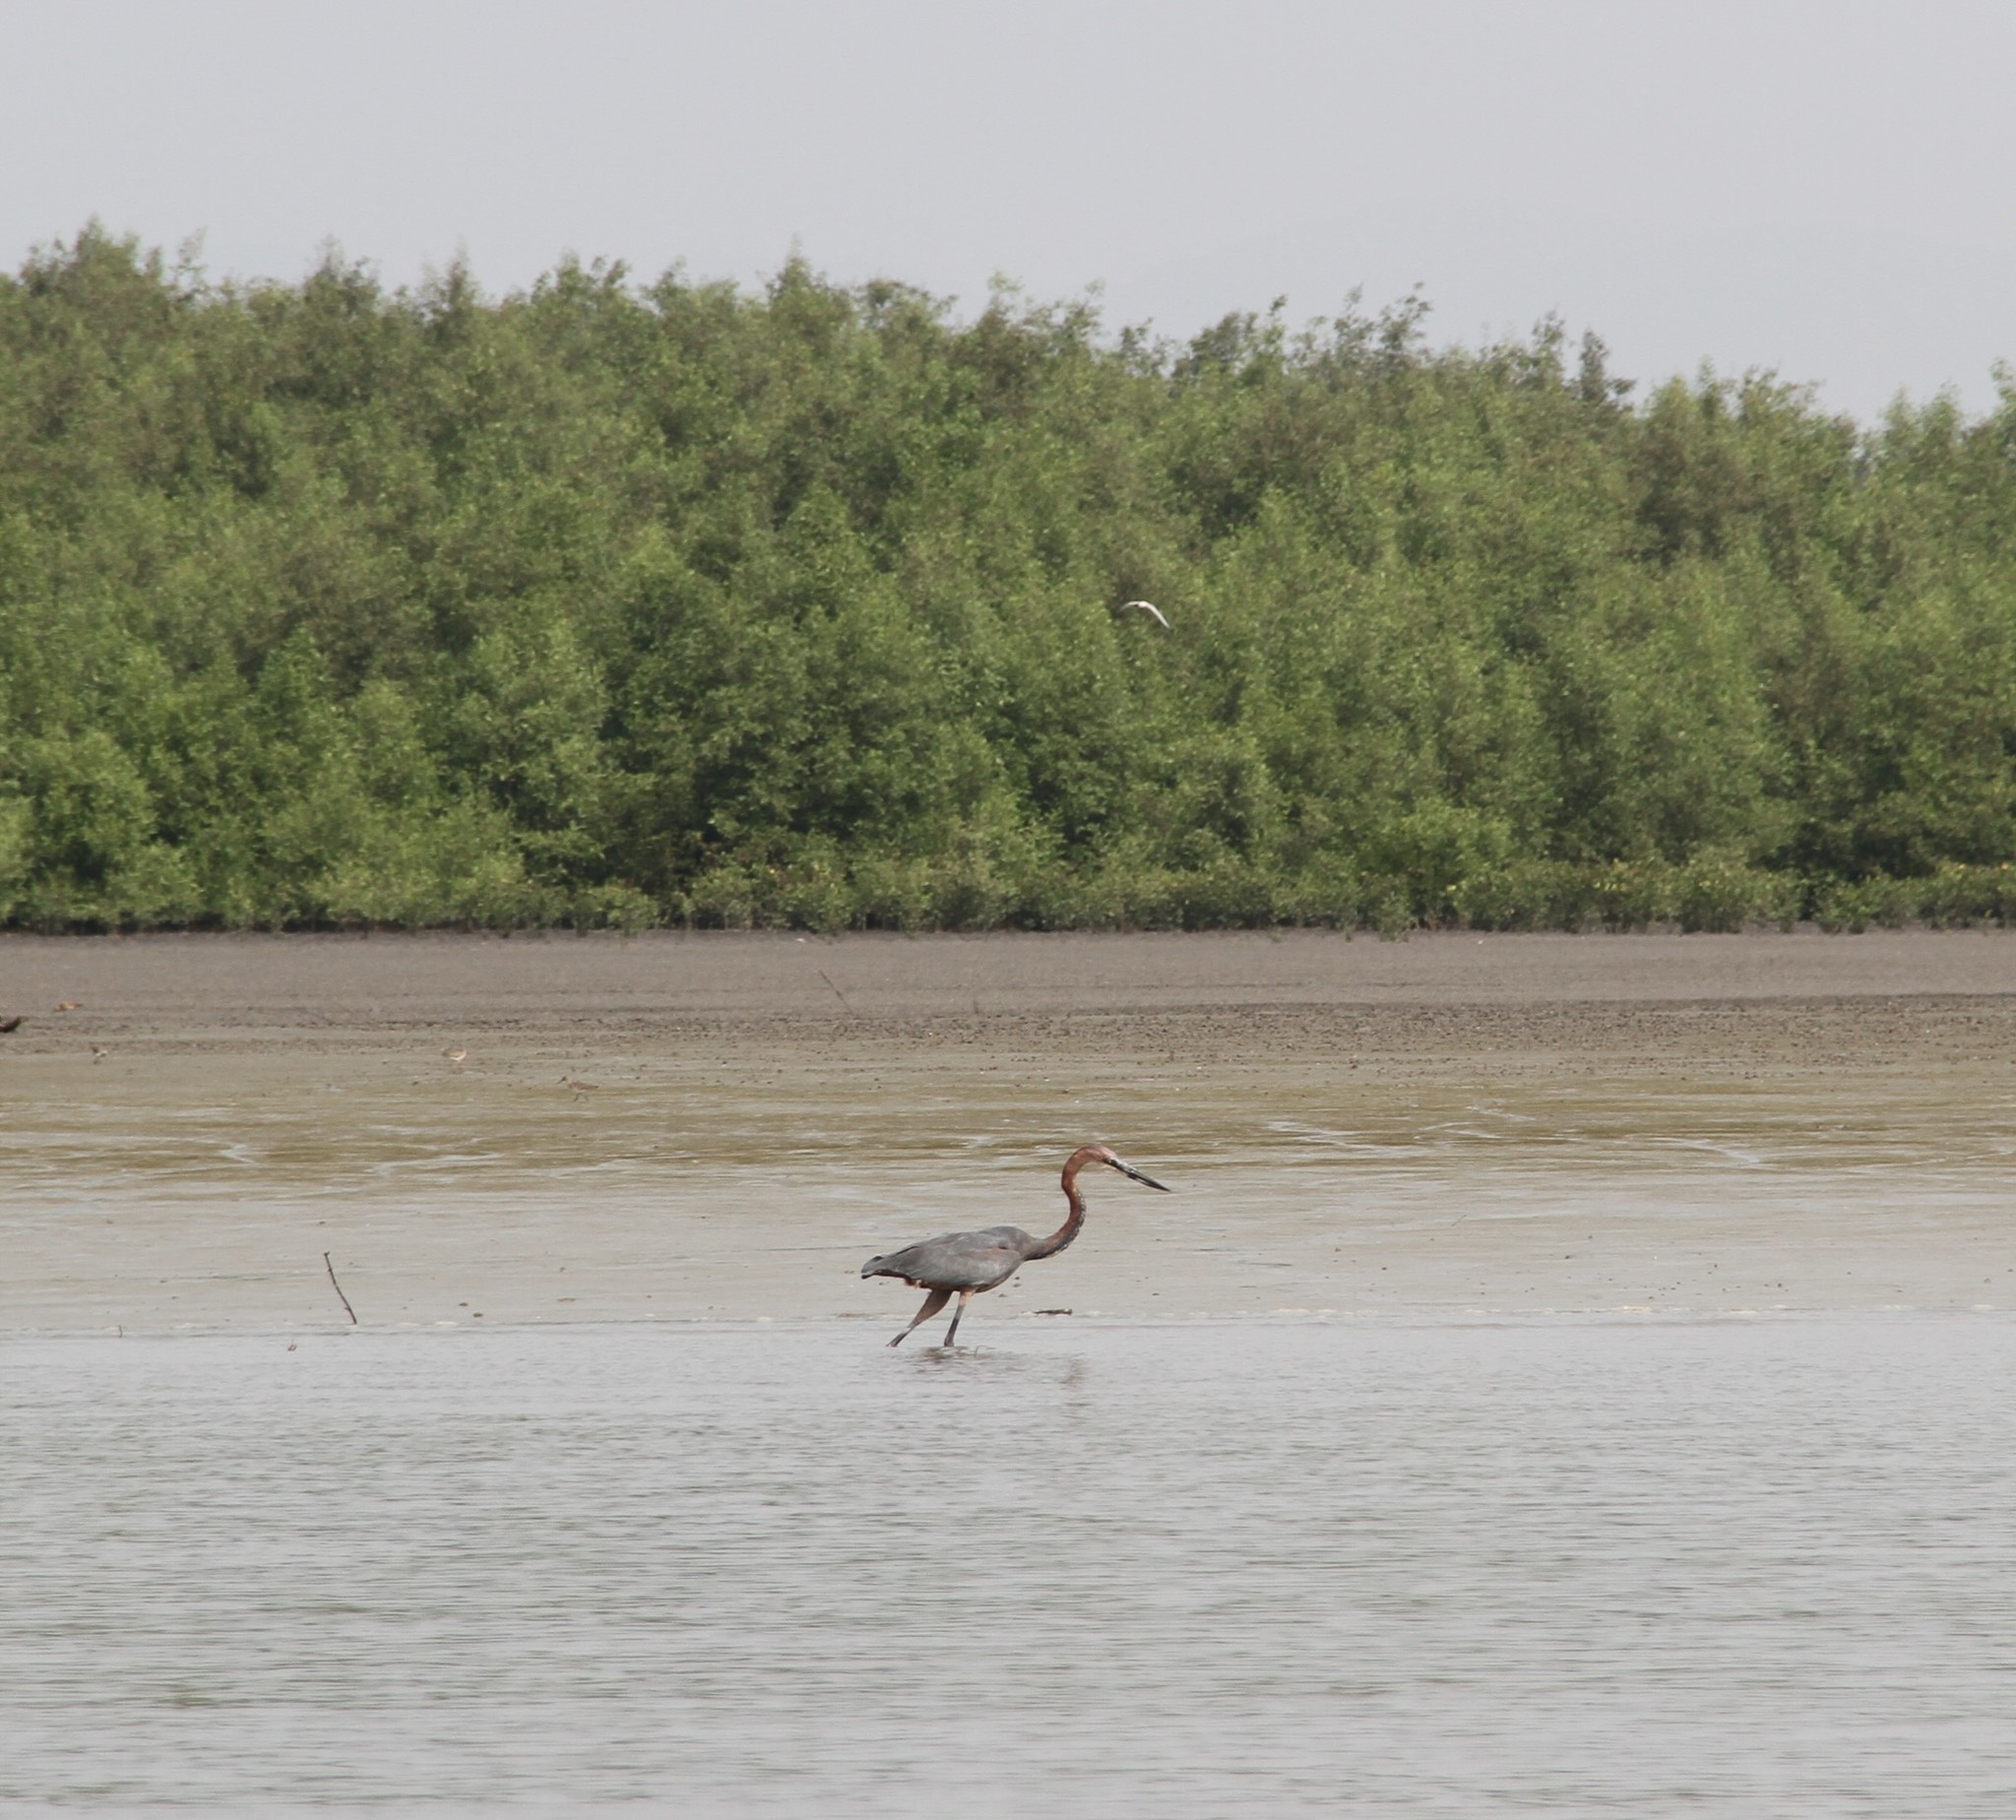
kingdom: Animalia
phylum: Chordata
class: Aves
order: Pelecaniformes
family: Ardeidae
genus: Ardea
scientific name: Ardea goliath
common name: Goliath heron
